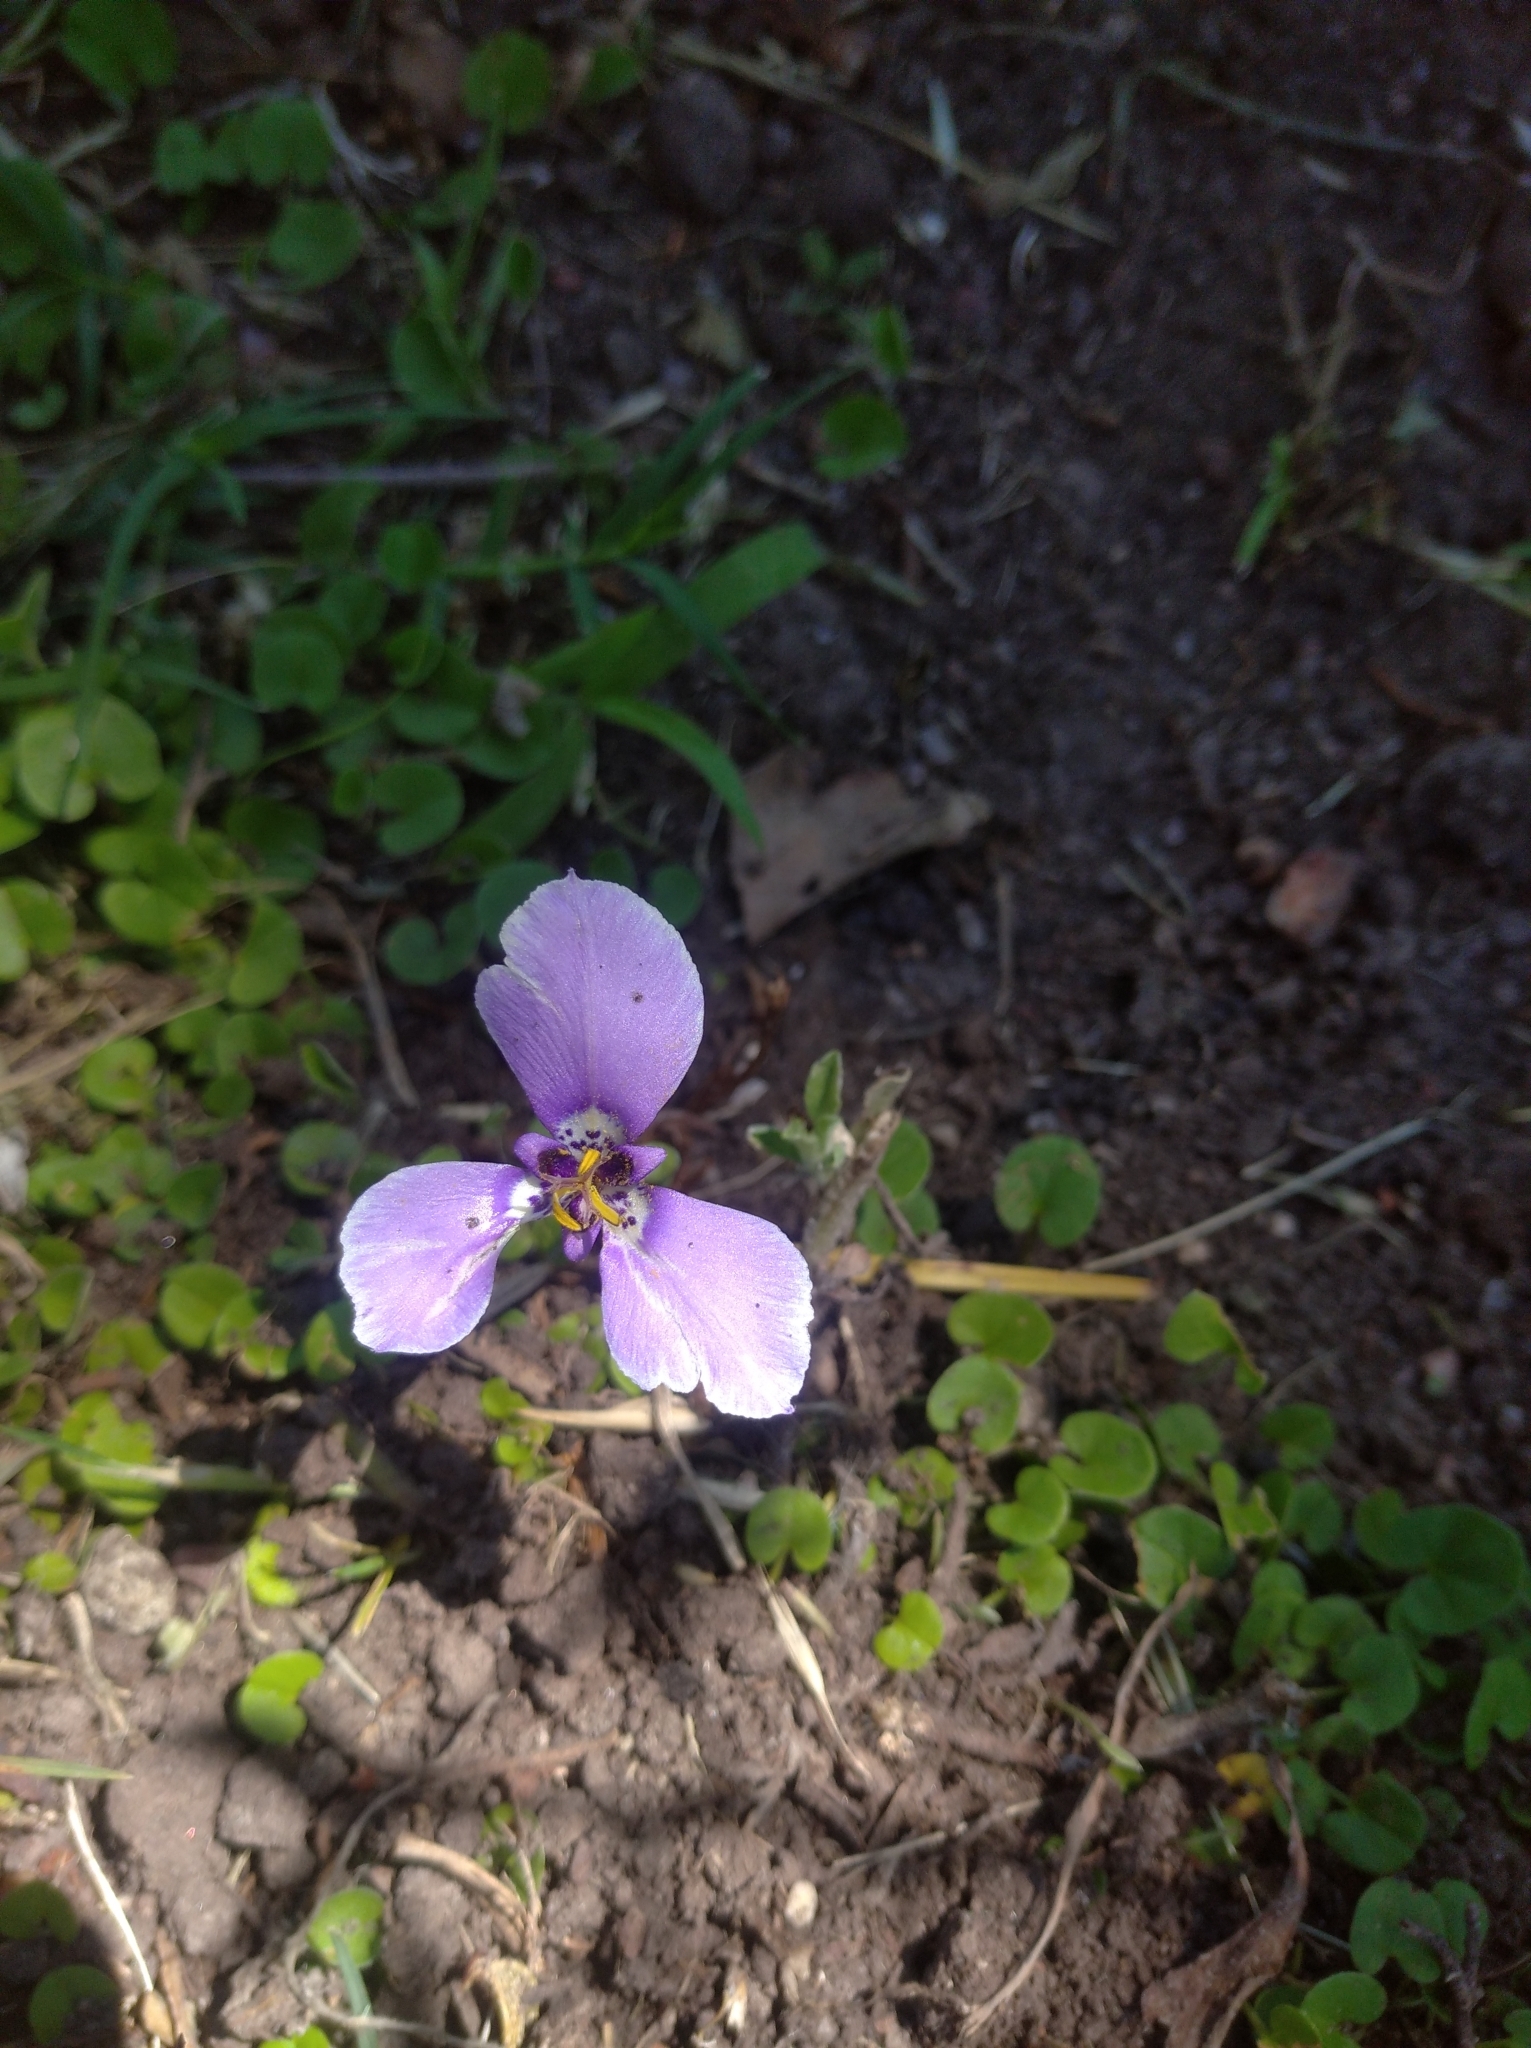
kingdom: Plantae
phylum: Tracheophyta
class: Liliopsida
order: Asparagales
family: Iridaceae
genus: Herbertia
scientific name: Herbertia lahue
